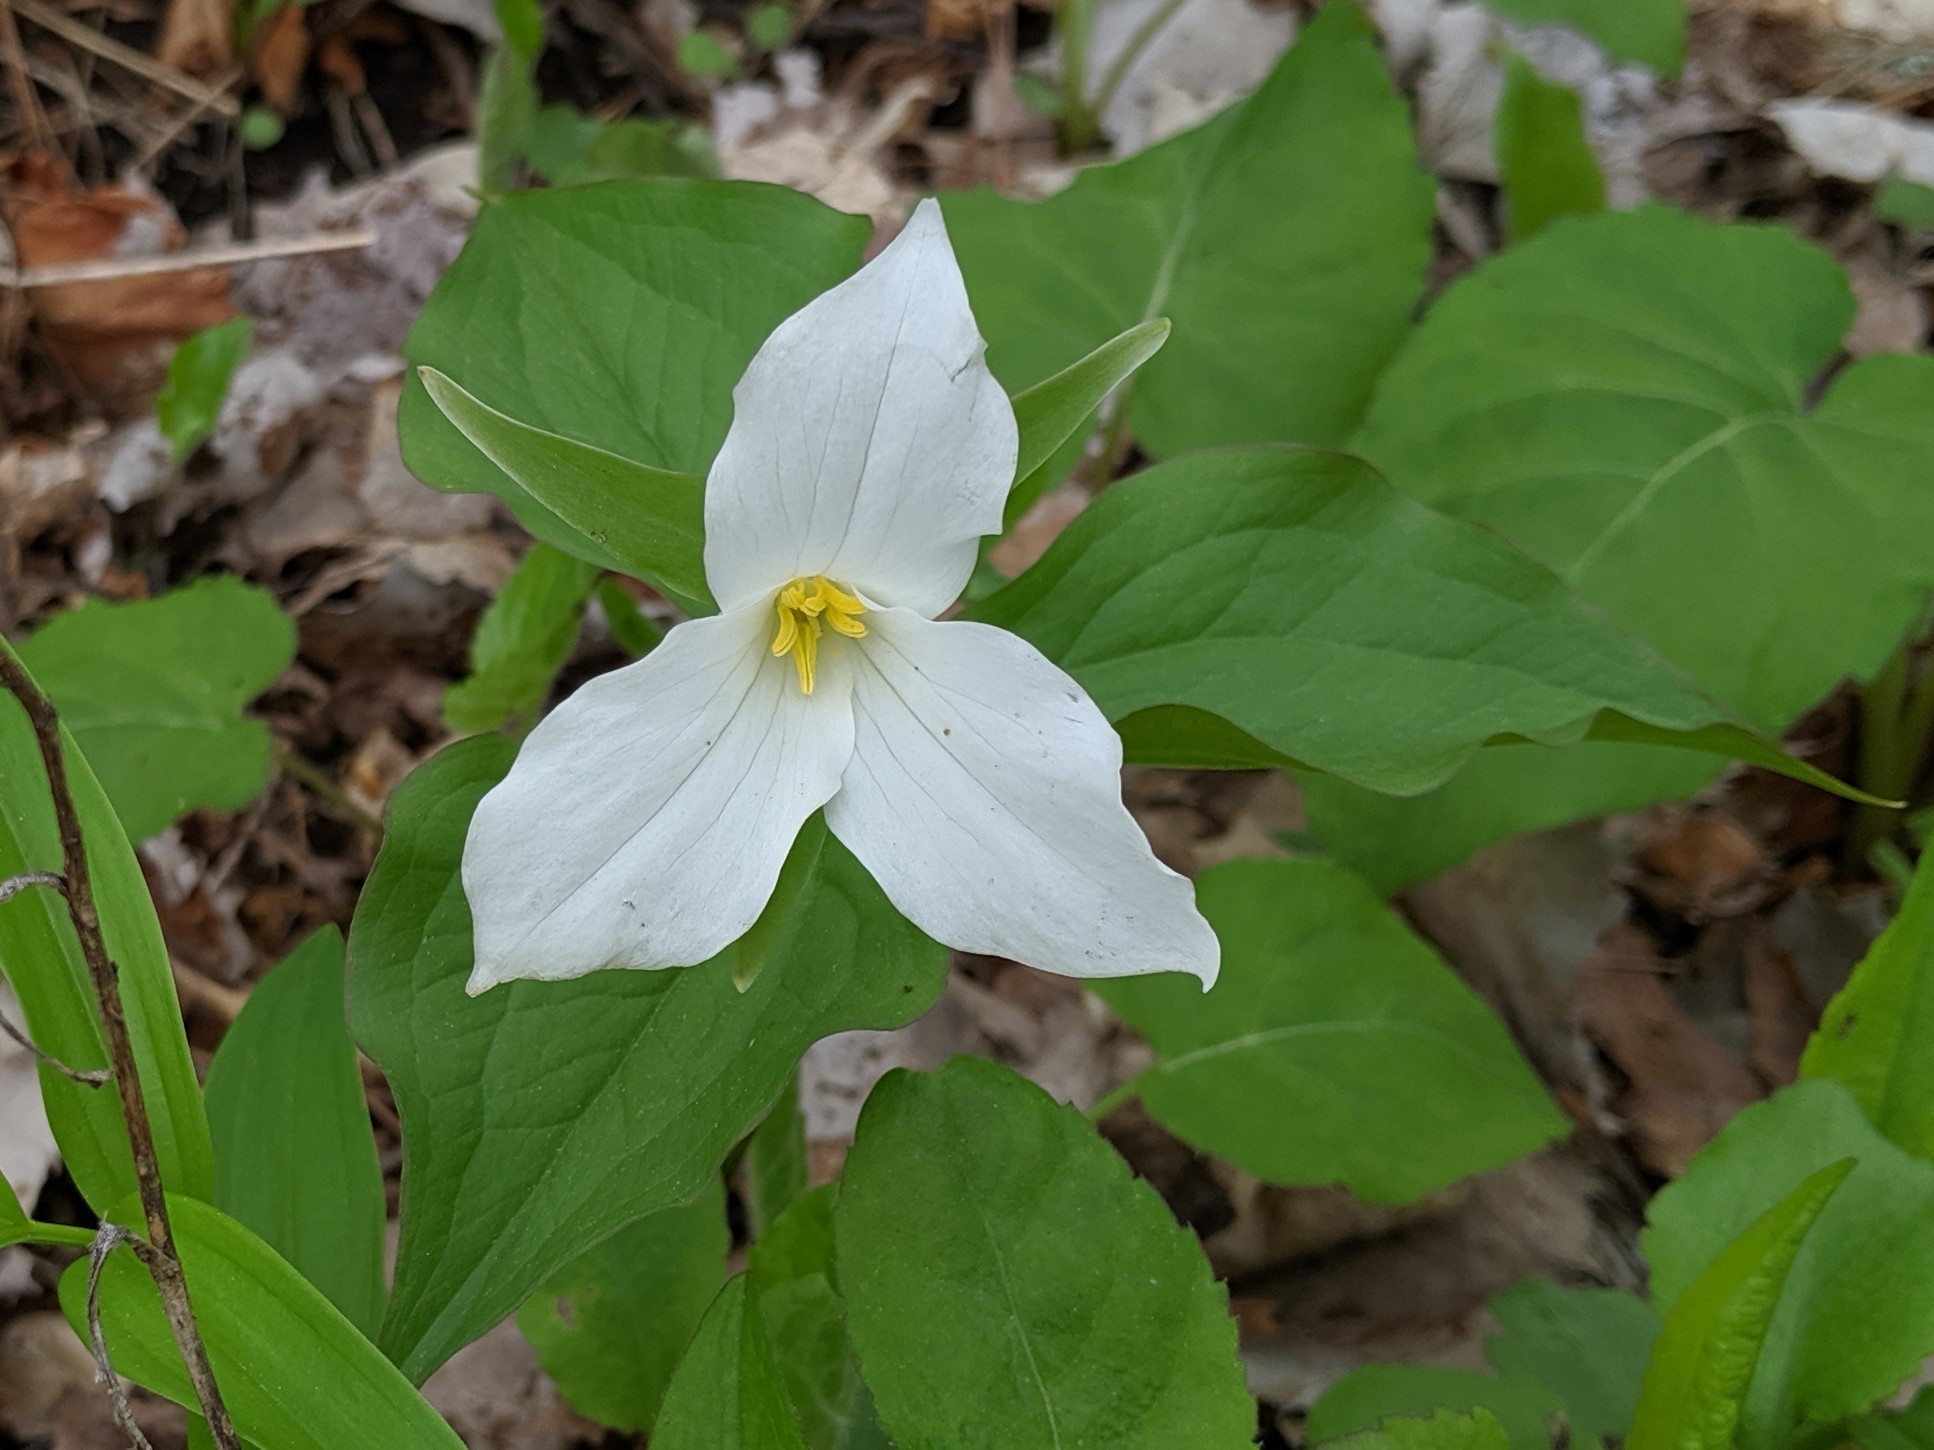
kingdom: Plantae
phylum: Tracheophyta
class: Liliopsida
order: Liliales
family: Melanthiaceae
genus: Trillium
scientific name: Trillium grandiflorum
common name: Great white trillium
